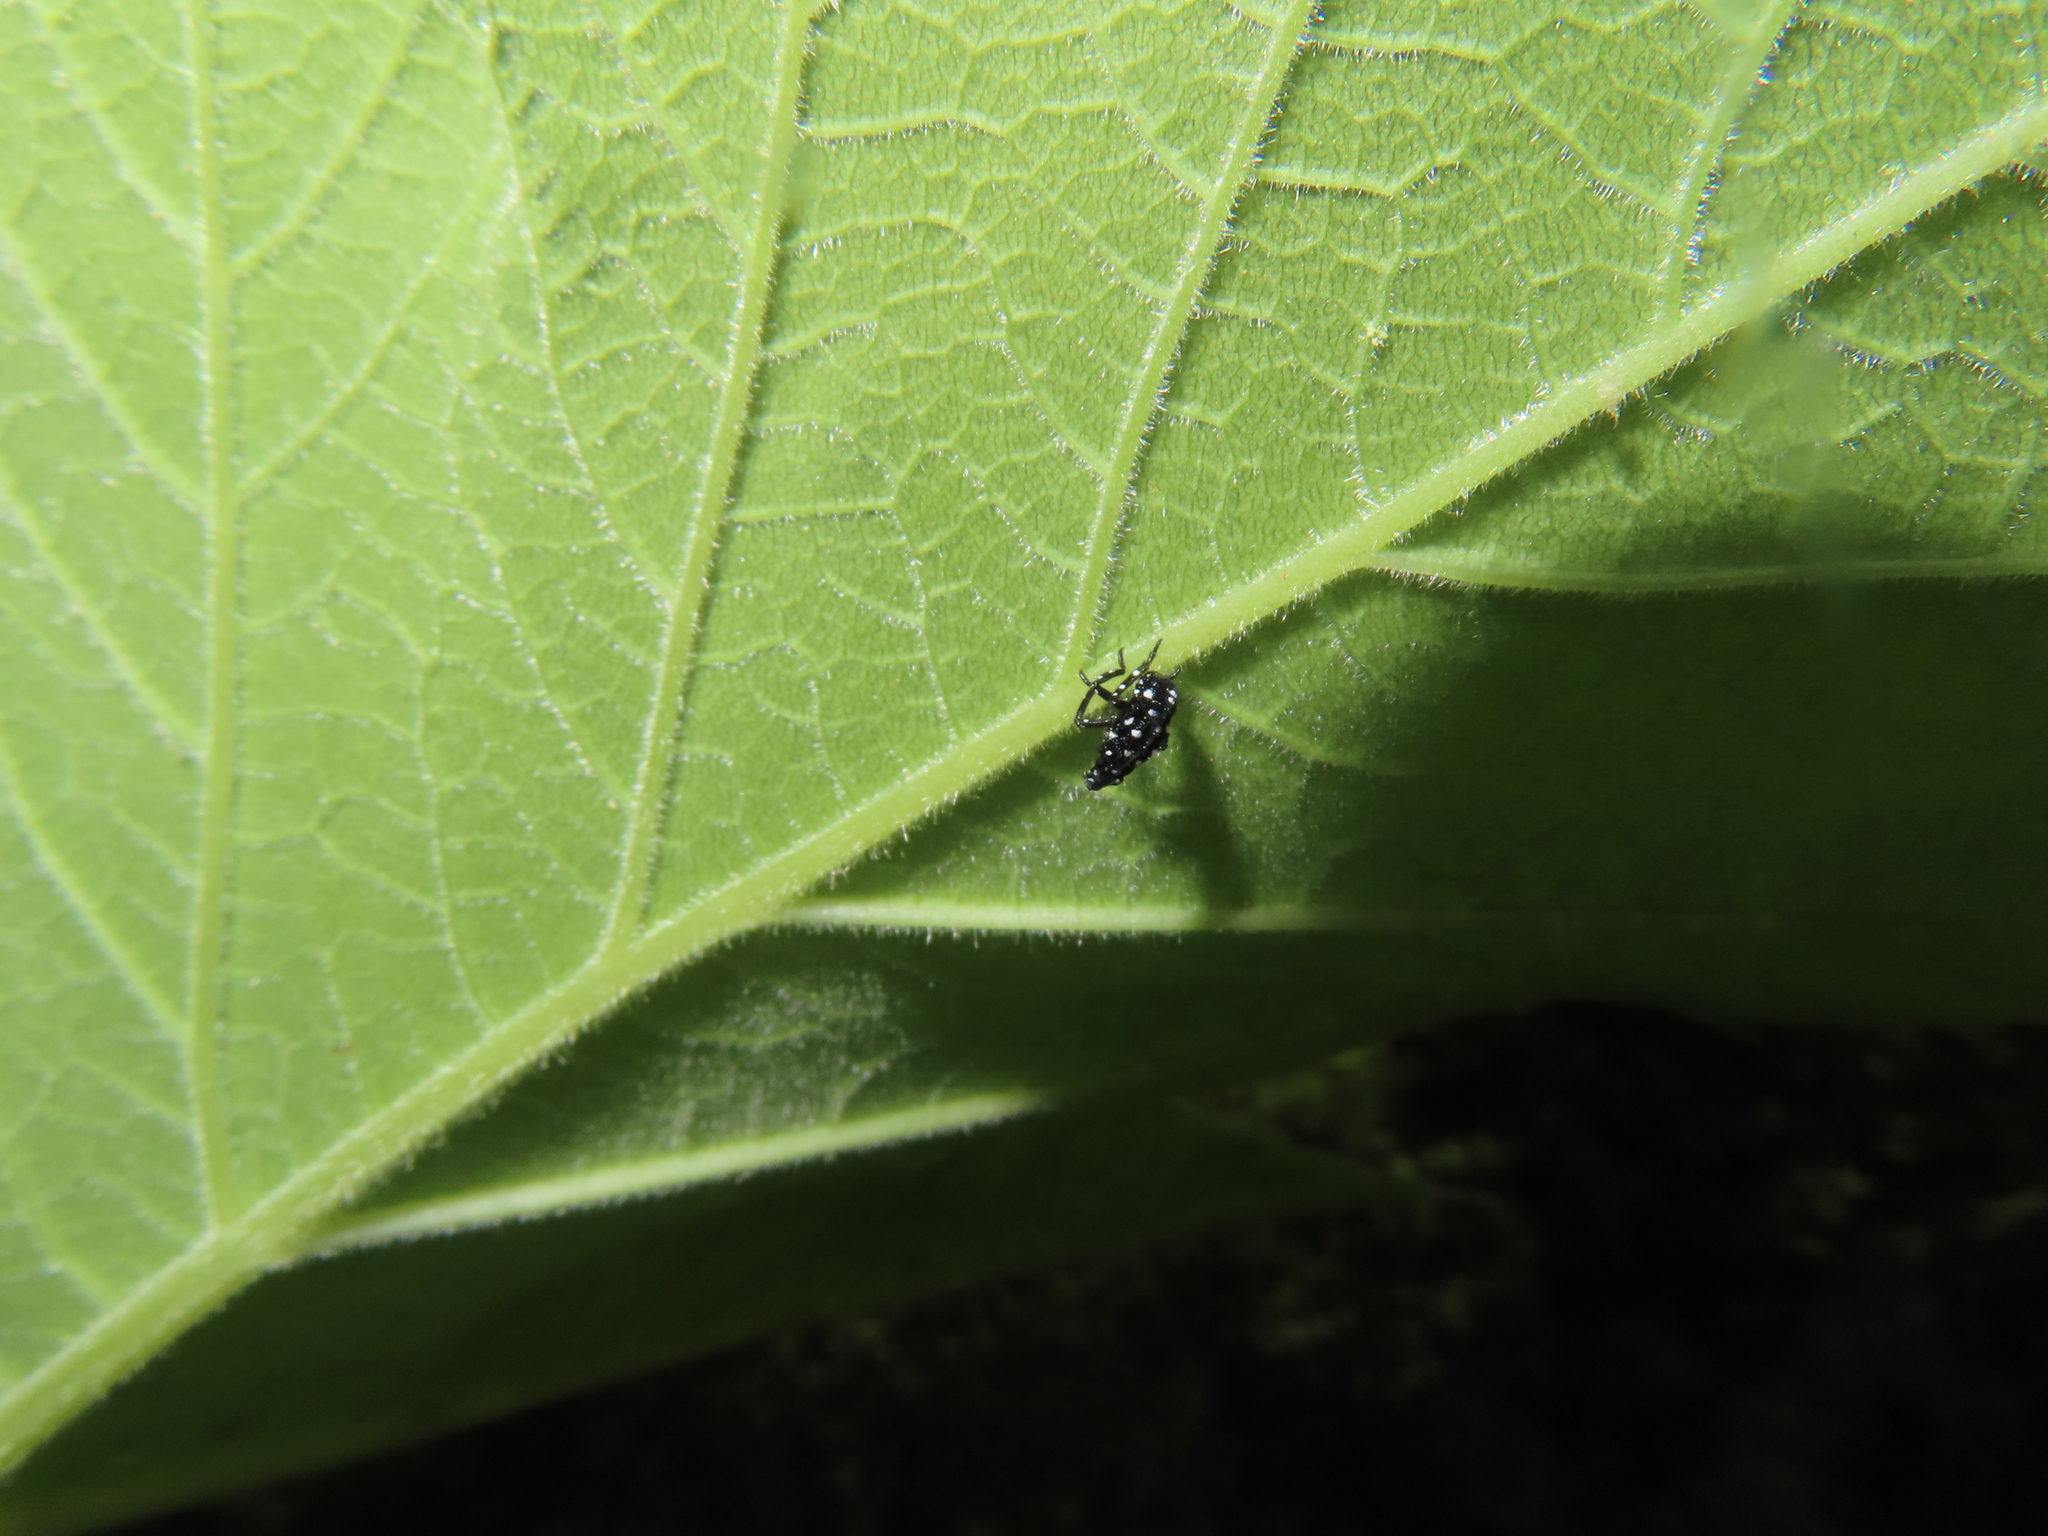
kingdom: Animalia
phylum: Arthropoda
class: Insecta
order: Hemiptera
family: Fulgoridae
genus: Lycorma
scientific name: Lycorma delicatula
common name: Spotted lanternfly
